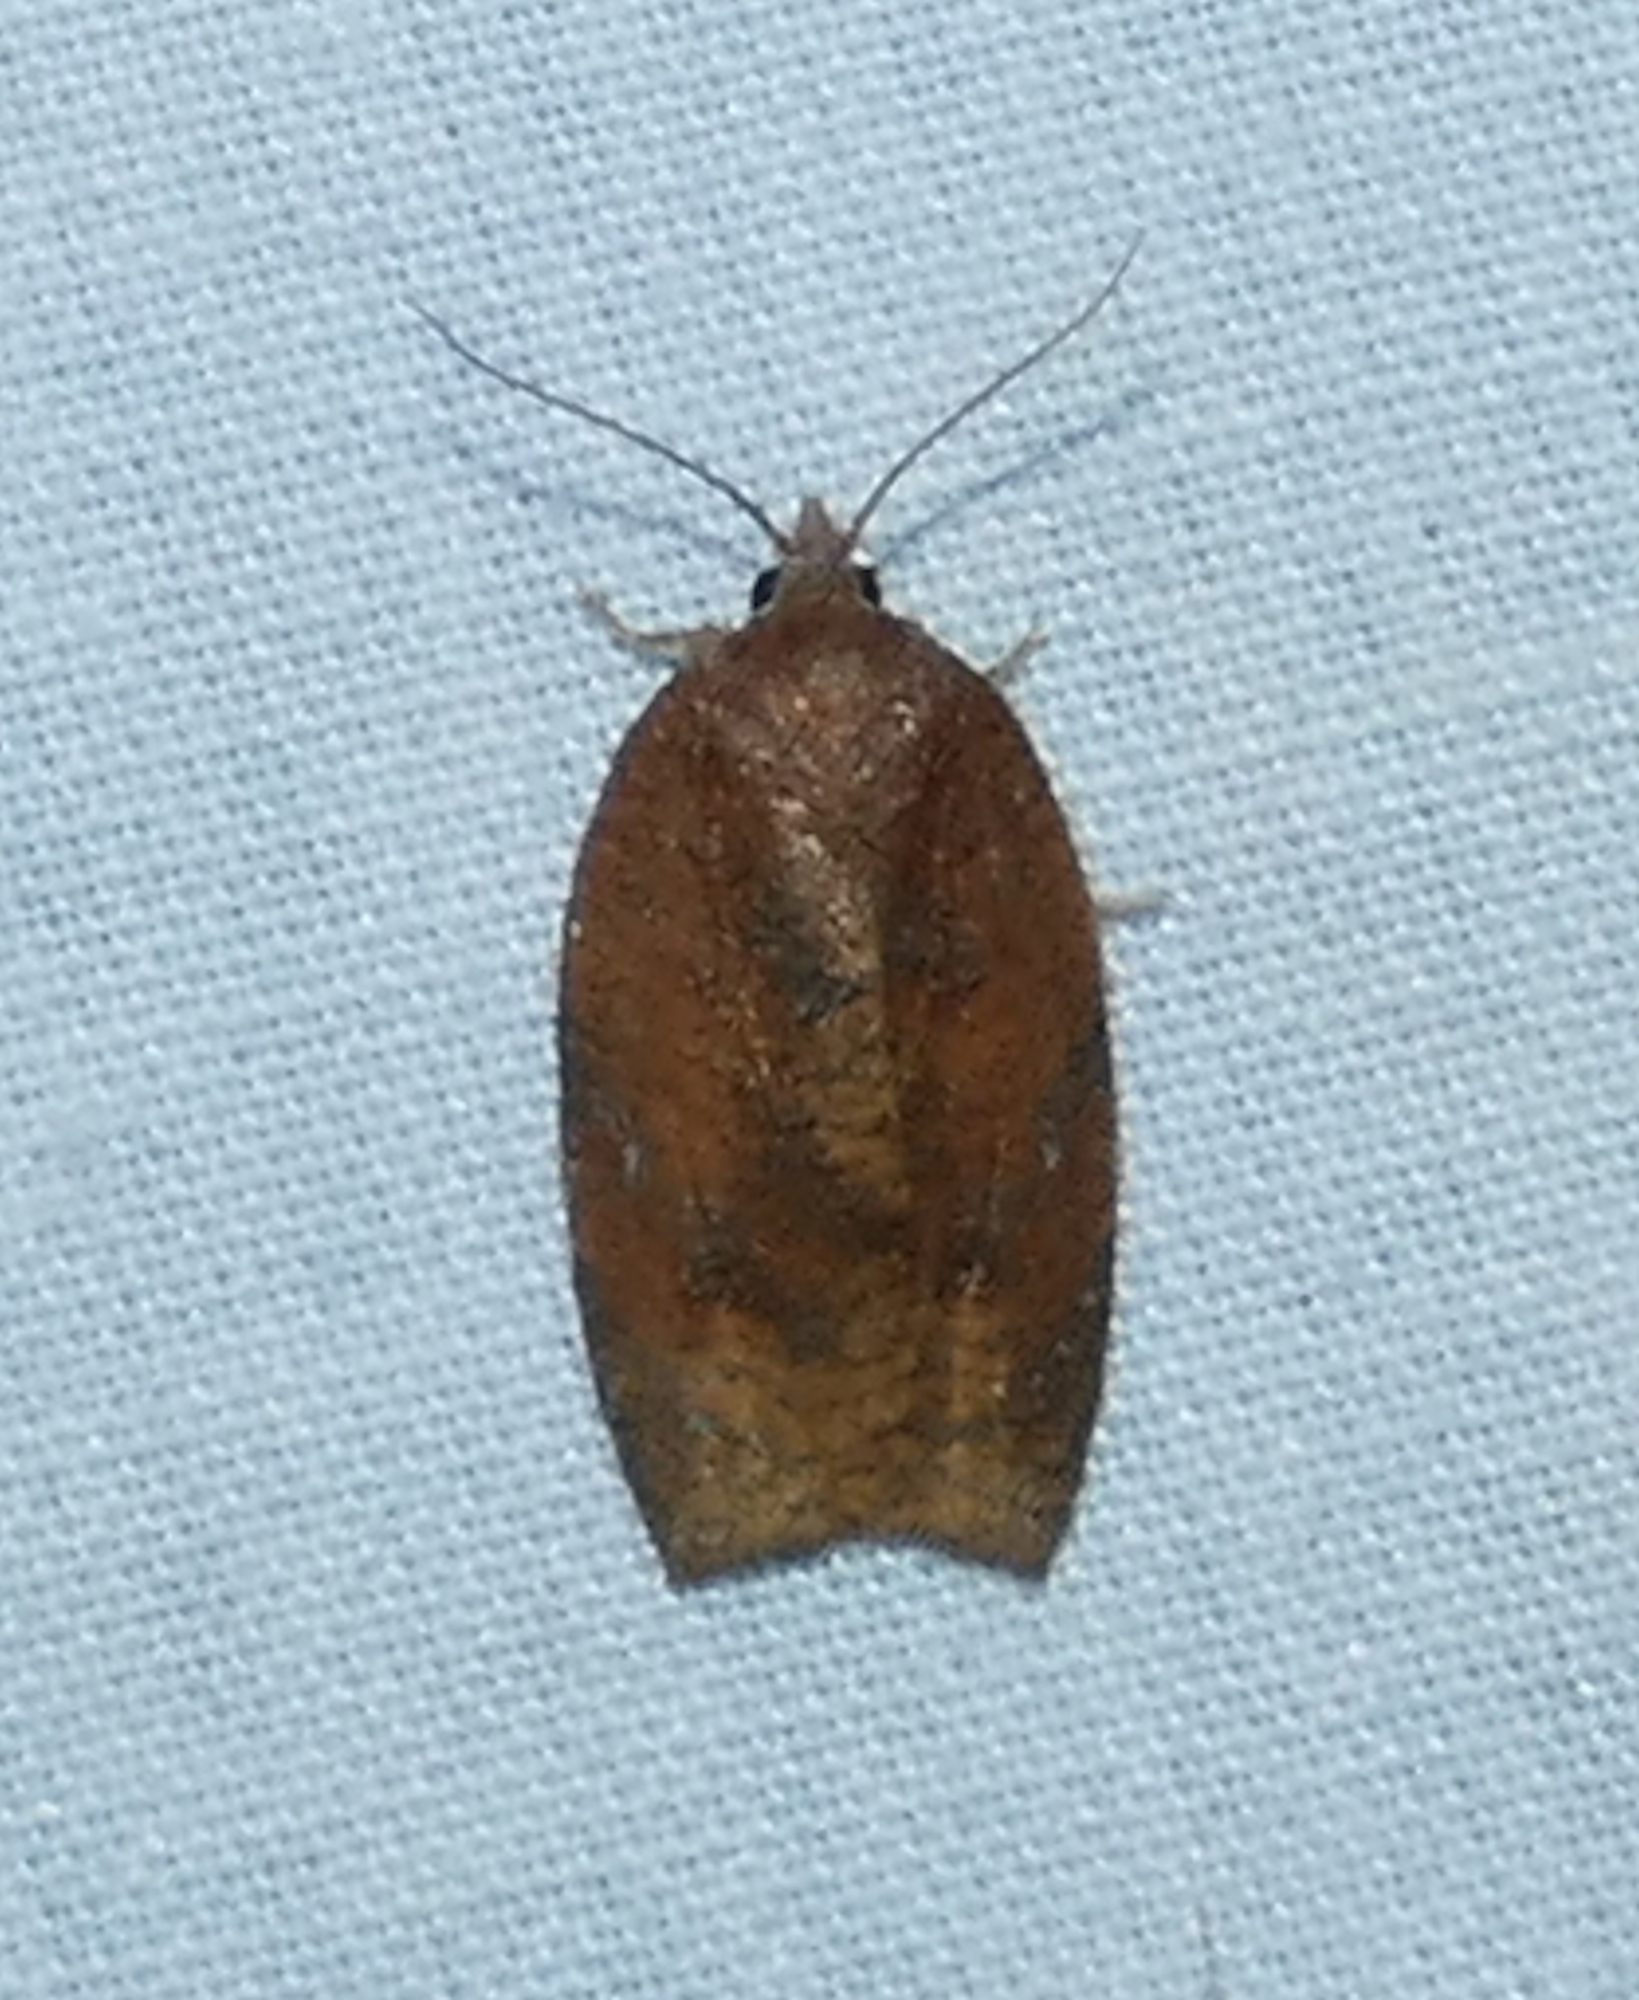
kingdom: Animalia
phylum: Arthropoda
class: Insecta
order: Lepidoptera
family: Tortricidae
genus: Amorbia
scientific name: Amorbia emigratella
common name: Mexican leafroller
